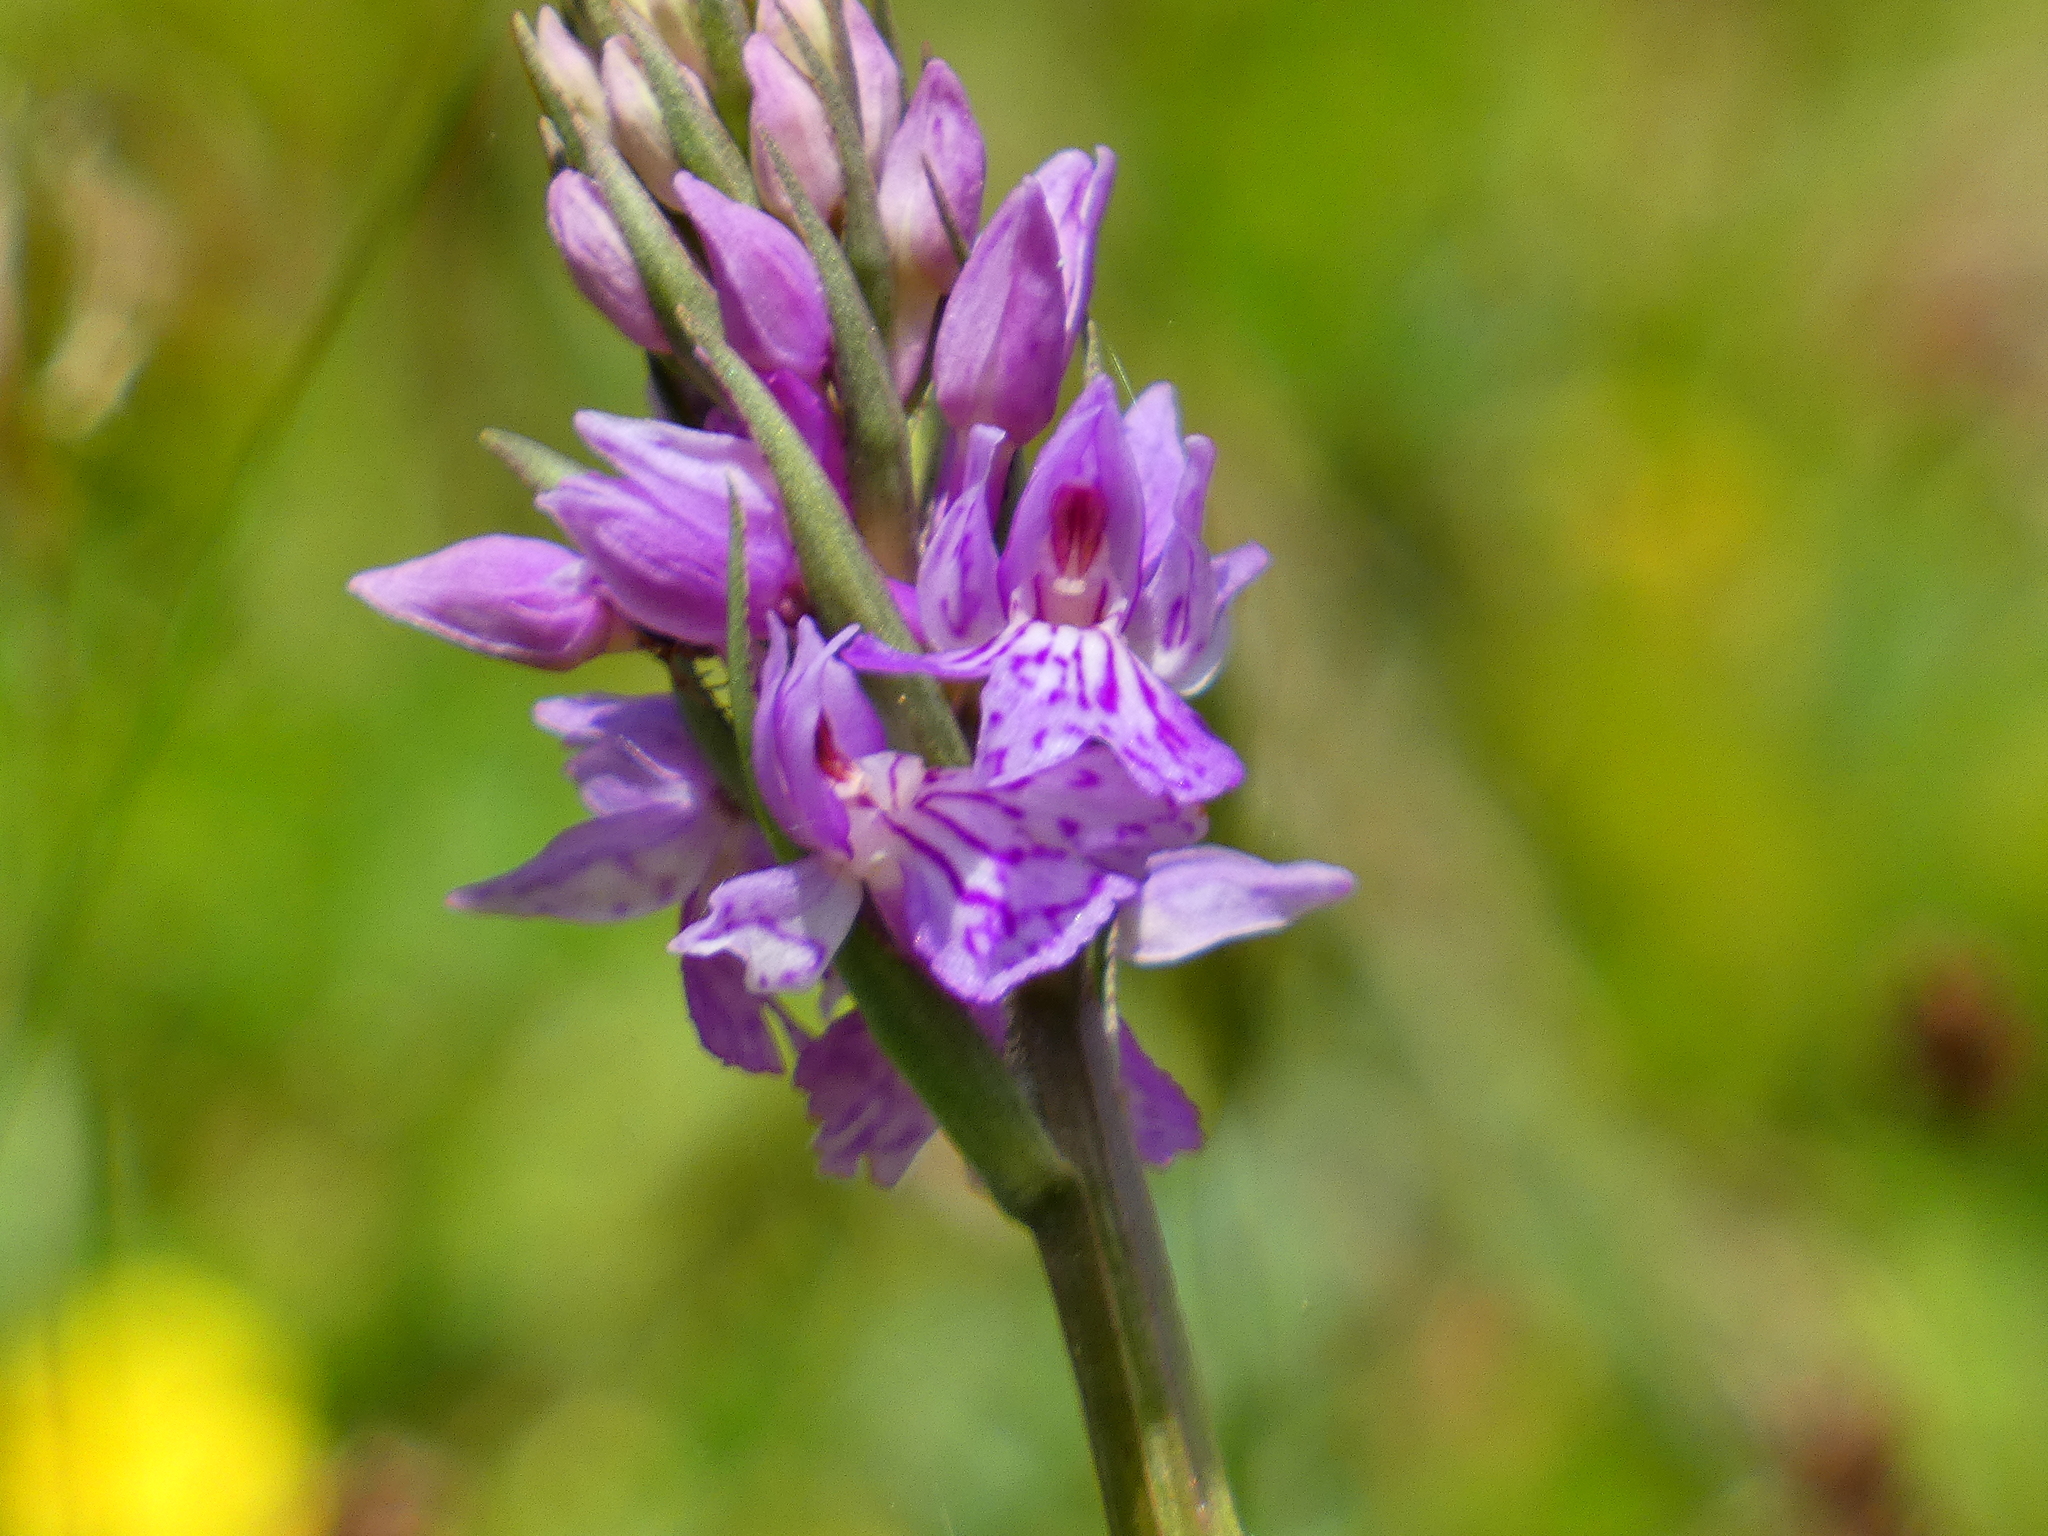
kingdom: Plantae
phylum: Tracheophyta
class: Liliopsida
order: Asparagales
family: Orchidaceae
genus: Dactylorhiza
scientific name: Dactylorhiza maculata
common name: Heath spotted-orchid
